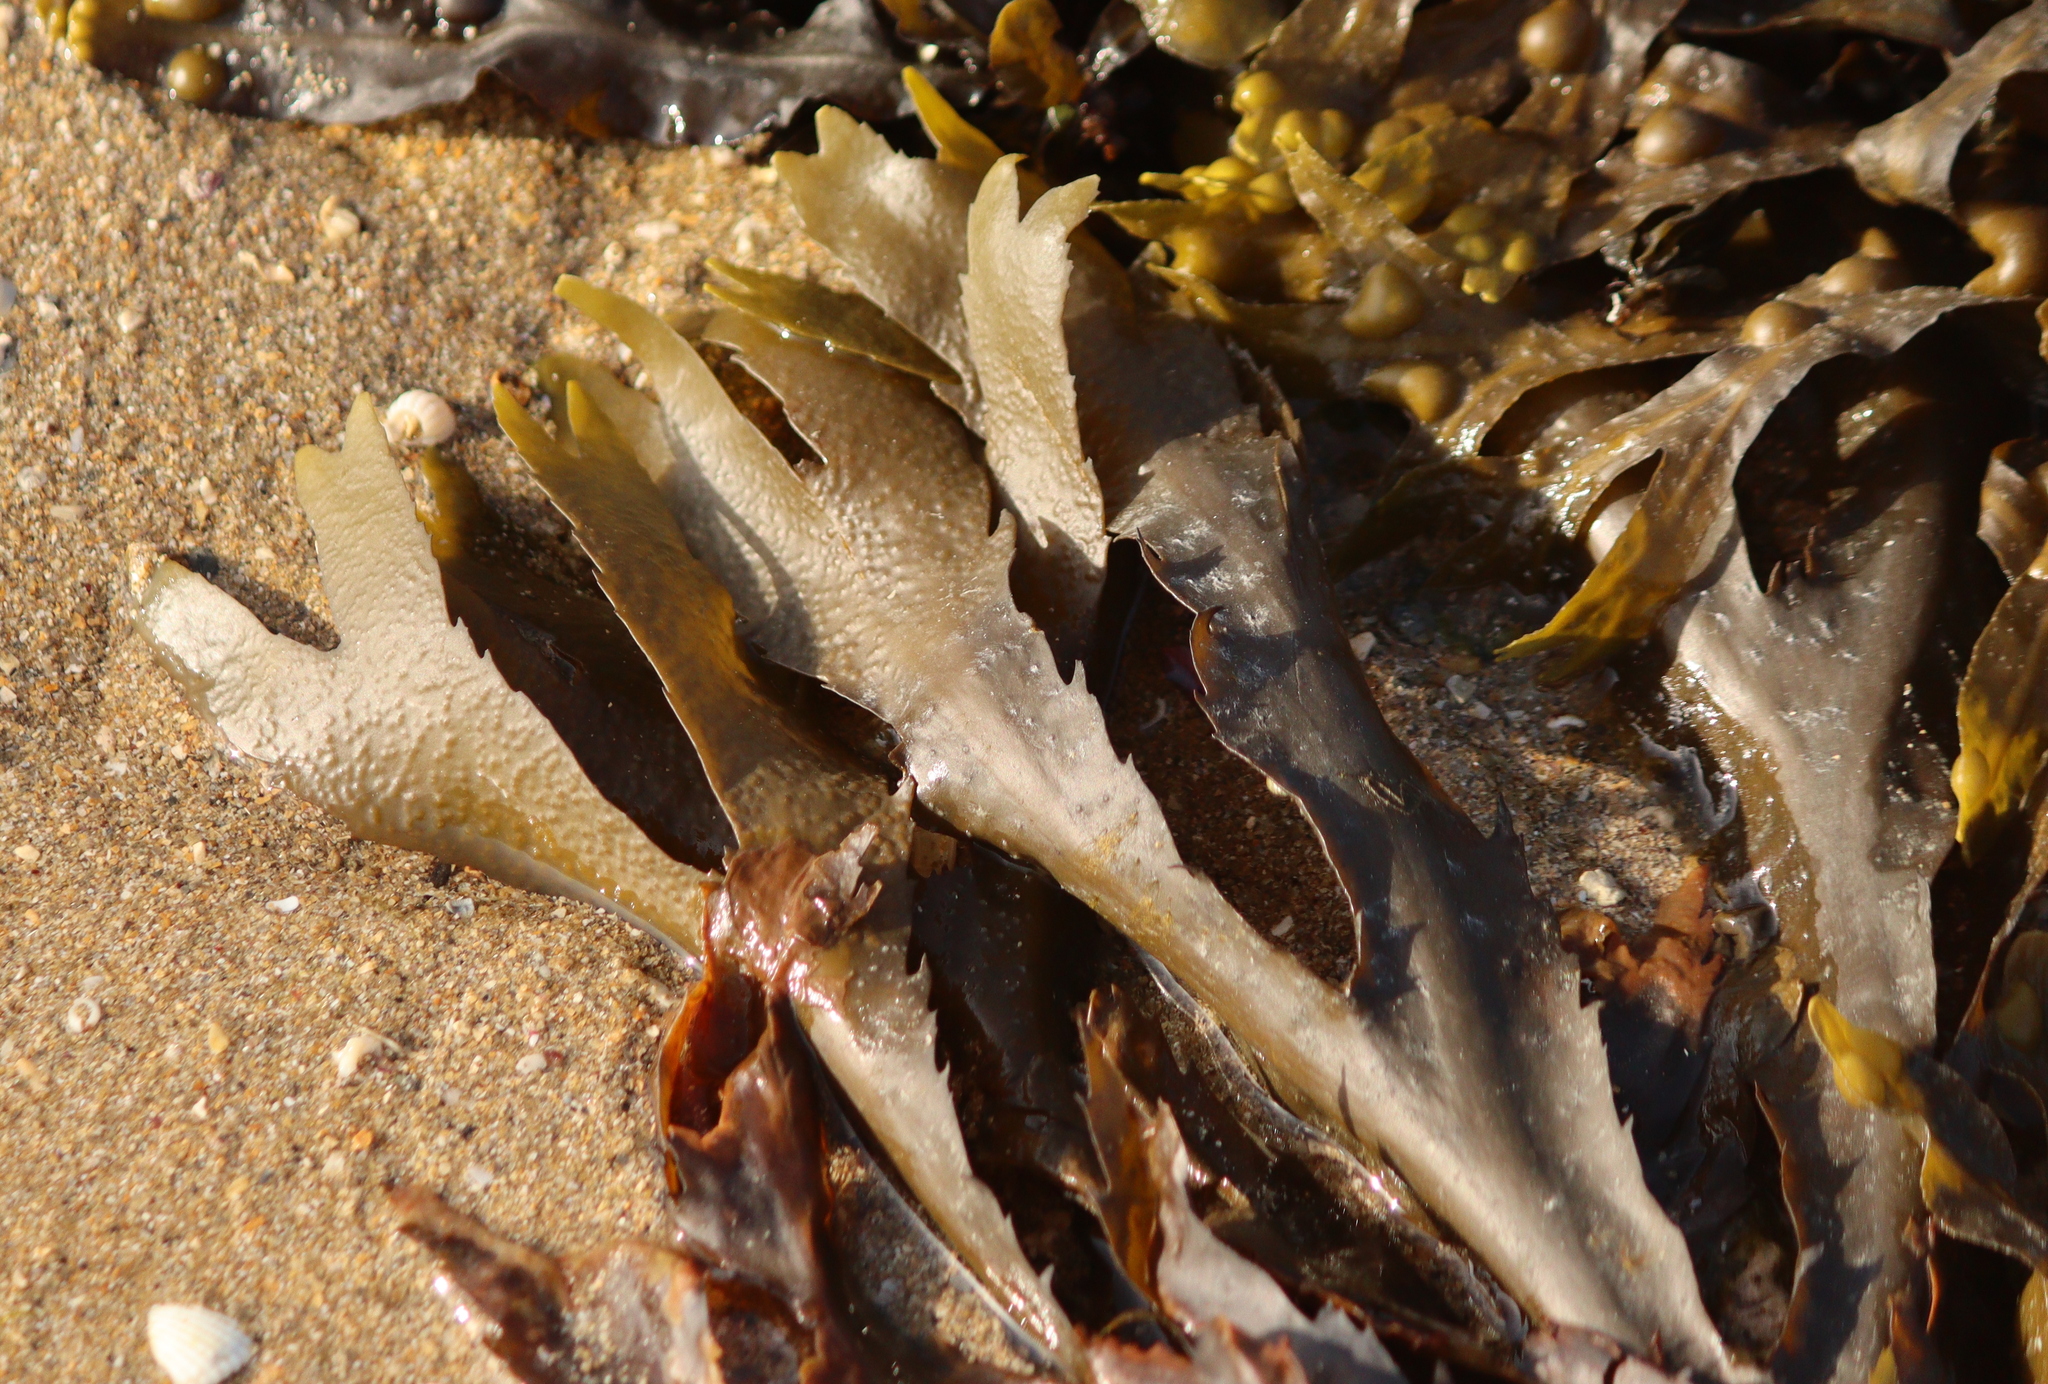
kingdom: Chromista
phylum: Ochrophyta
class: Phaeophyceae
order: Fucales
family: Fucaceae
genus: Fucus
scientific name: Fucus serratus
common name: Toothed wrack
